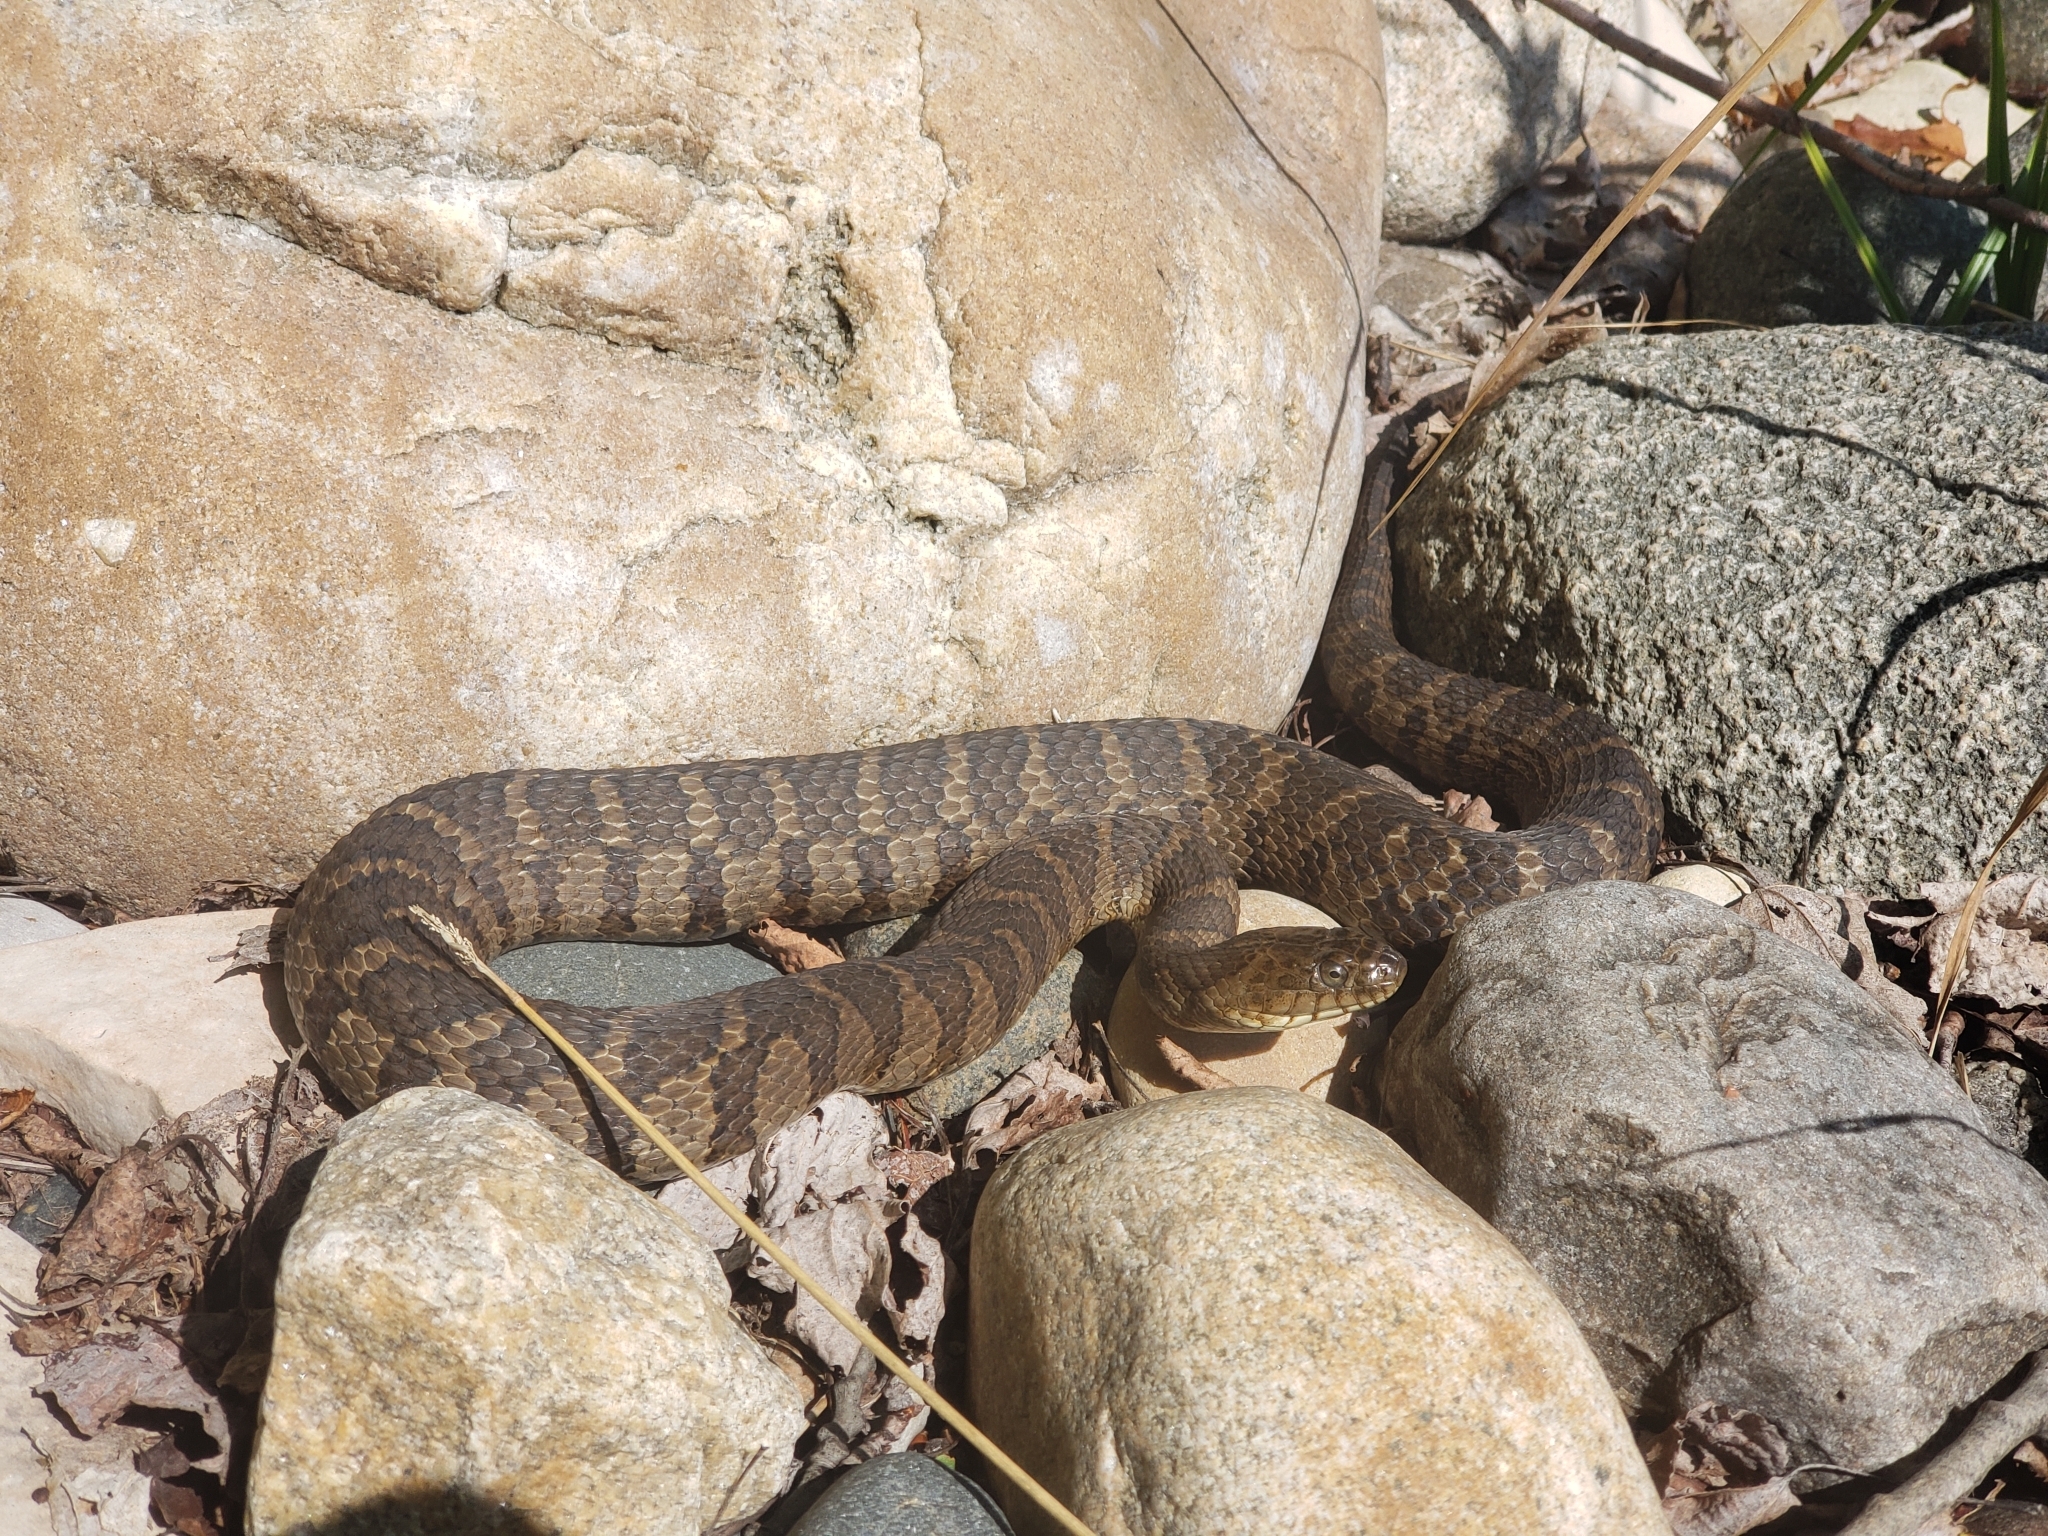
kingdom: Animalia
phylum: Chordata
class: Squamata
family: Colubridae
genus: Nerodia
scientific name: Nerodia sipedon
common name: Northern water snake
